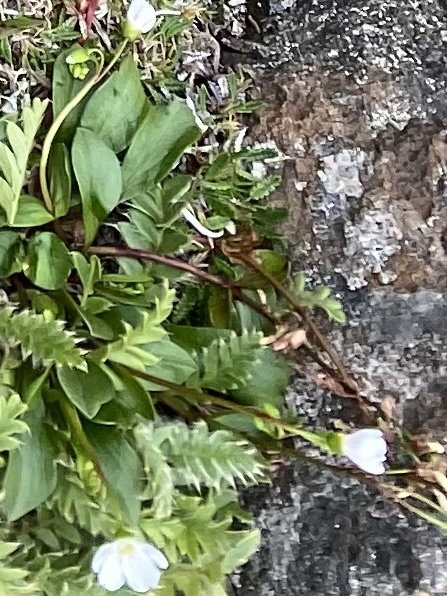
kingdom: Plantae
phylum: Tracheophyta
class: Magnoliopsida
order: Caryophyllales
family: Montiaceae
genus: Claytonia
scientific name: Claytonia joanneana
